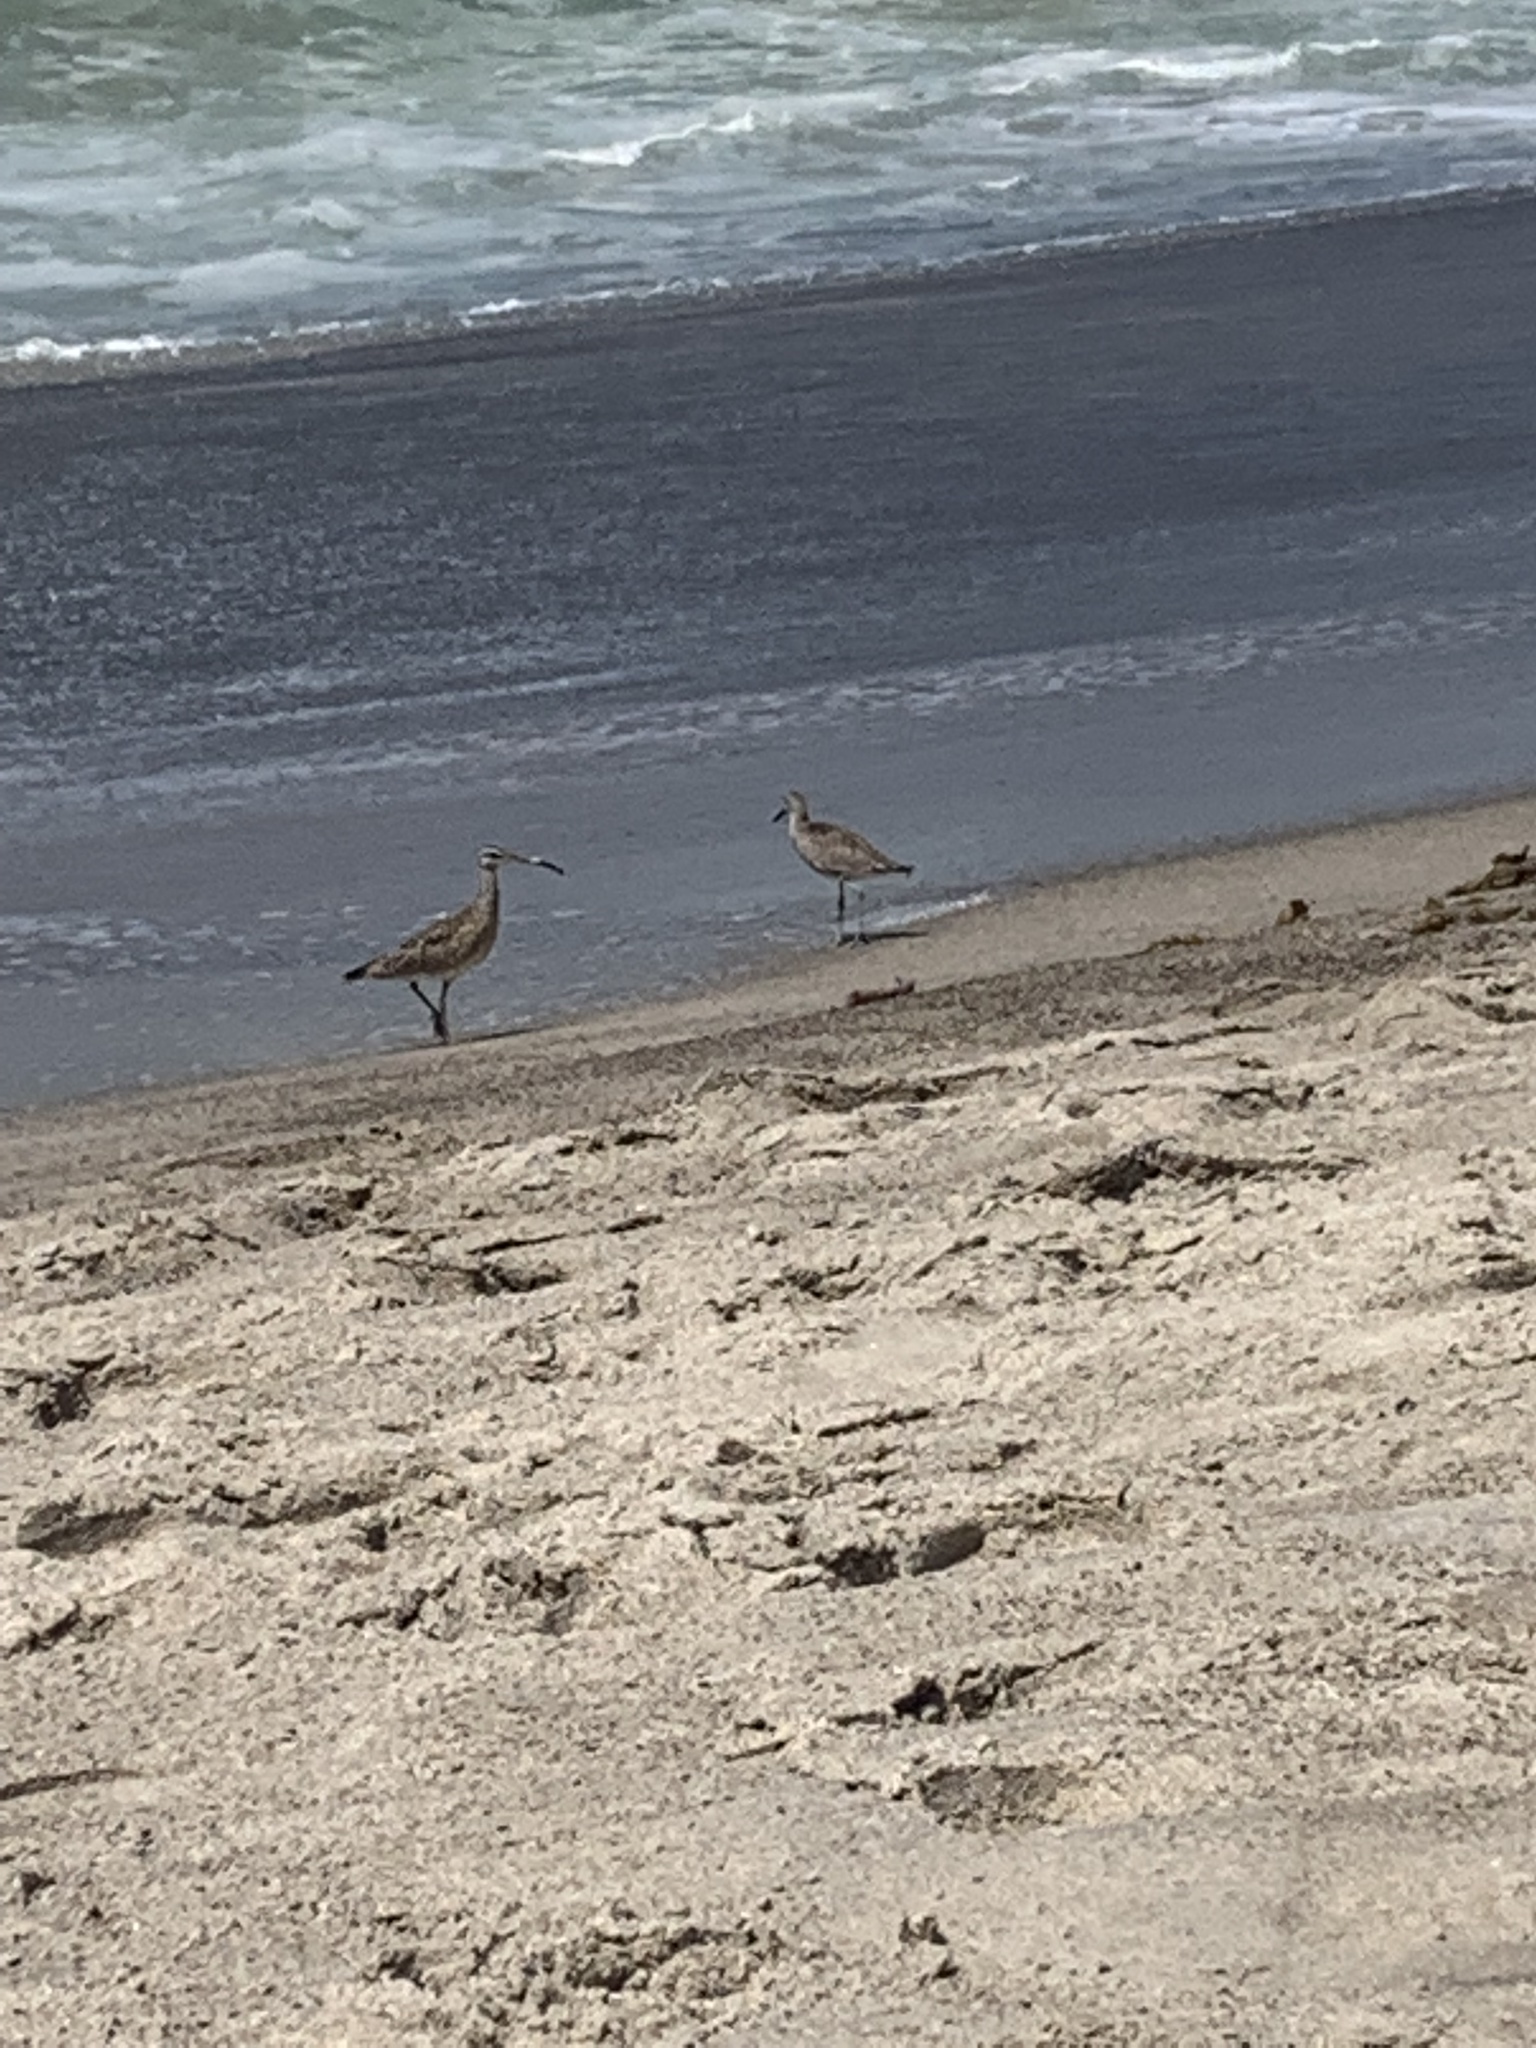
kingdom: Animalia
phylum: Chordata
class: Aves
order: Charadriiformes
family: Scolopacidae
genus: Tringa
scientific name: Tringa semipalmata
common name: Willet
